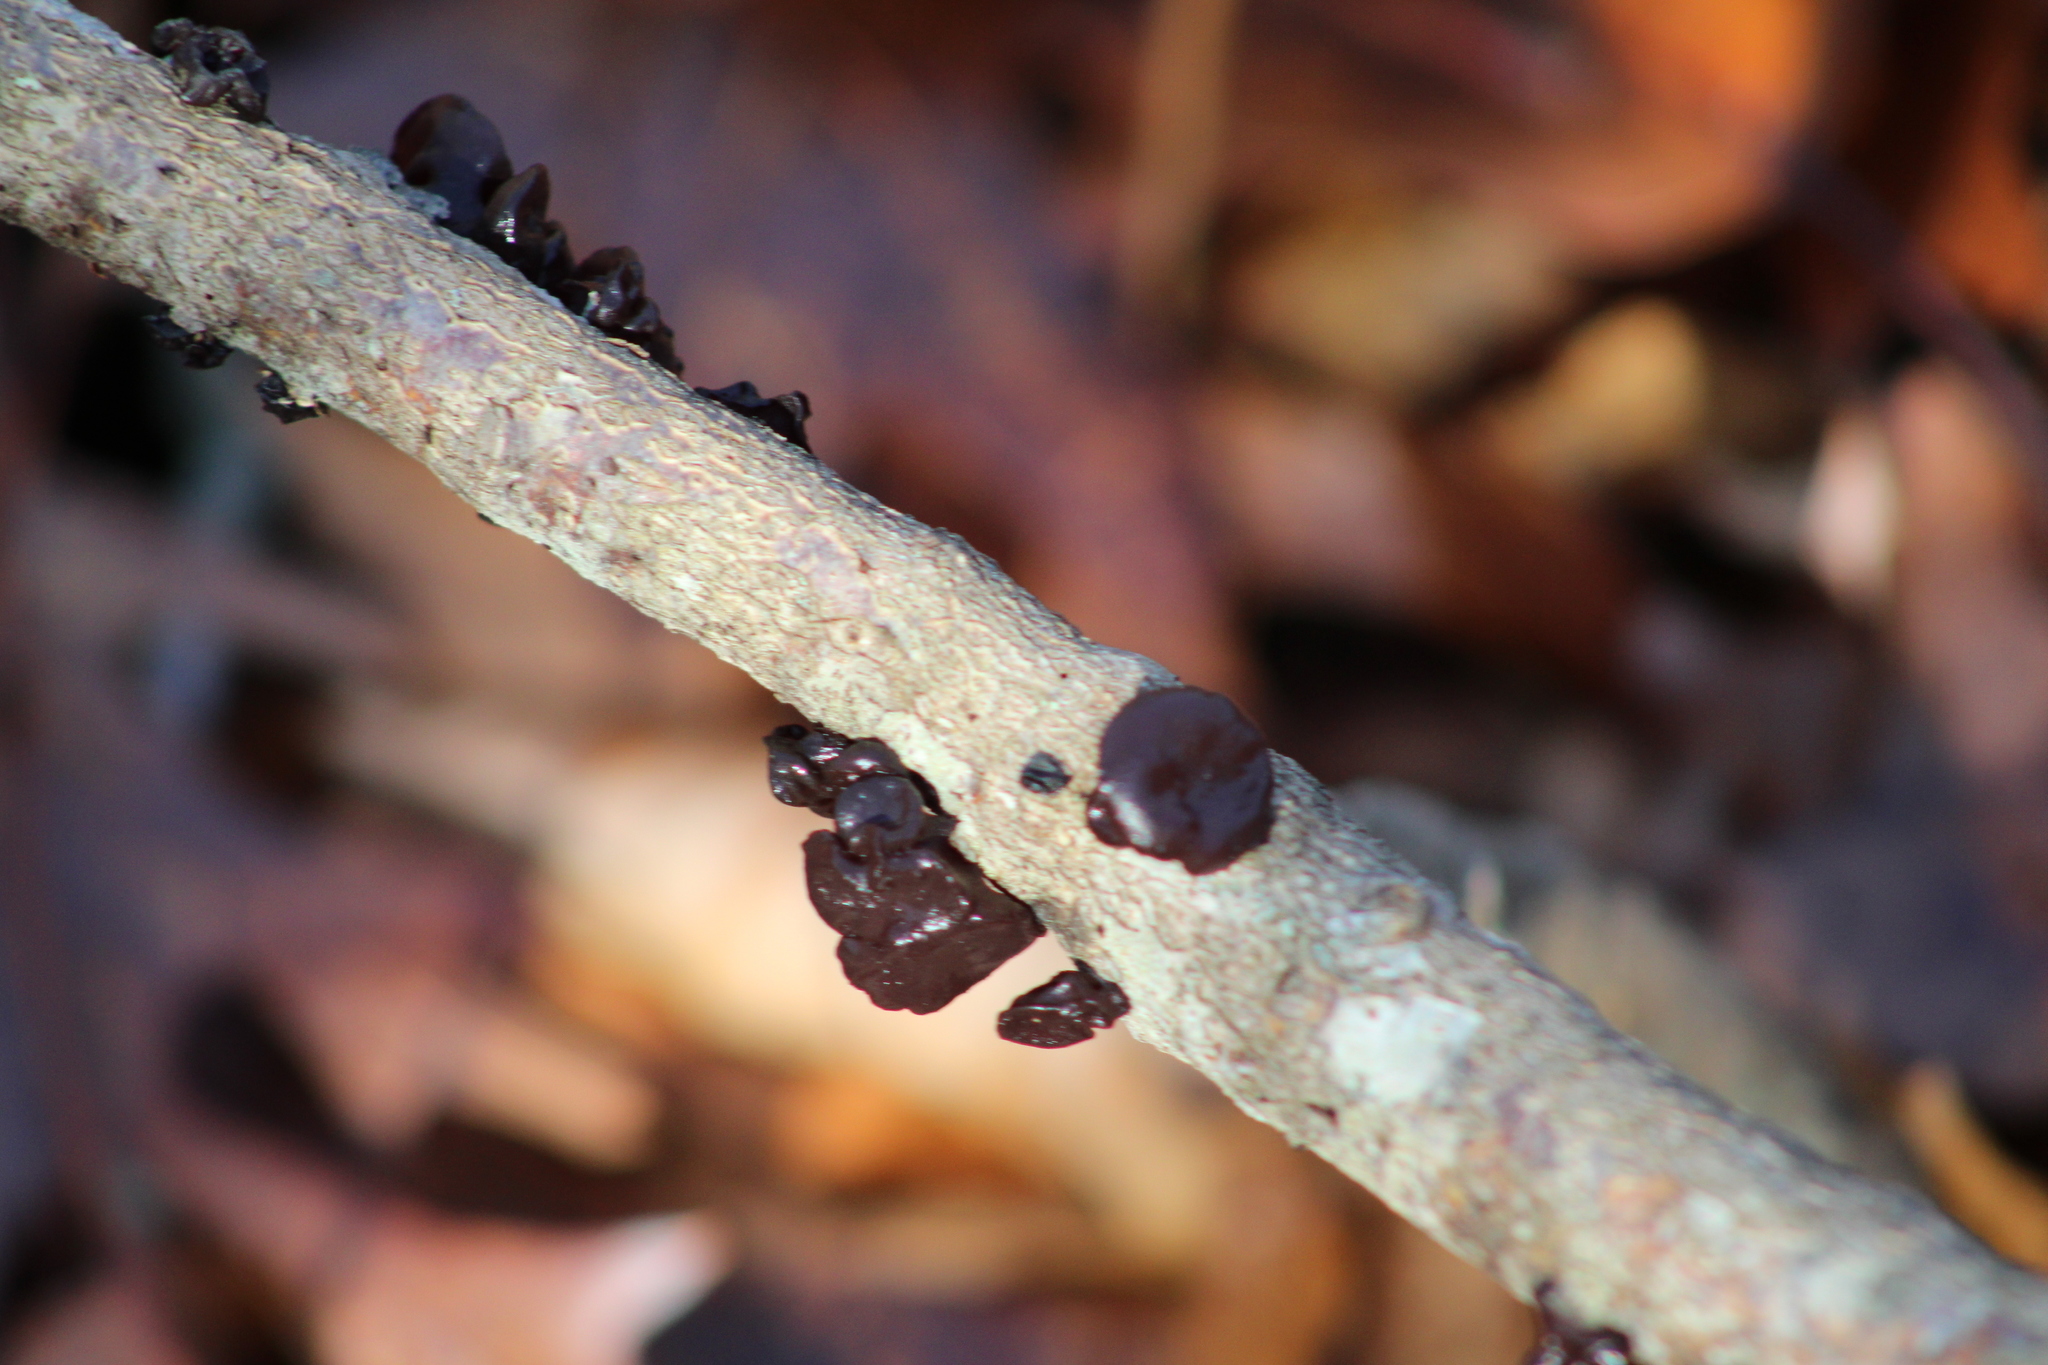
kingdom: Fungi
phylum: Basidiomycota
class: Agaricomycetes
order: Auriculariales
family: Auriculariaceae
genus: Exidia
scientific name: Exidia
